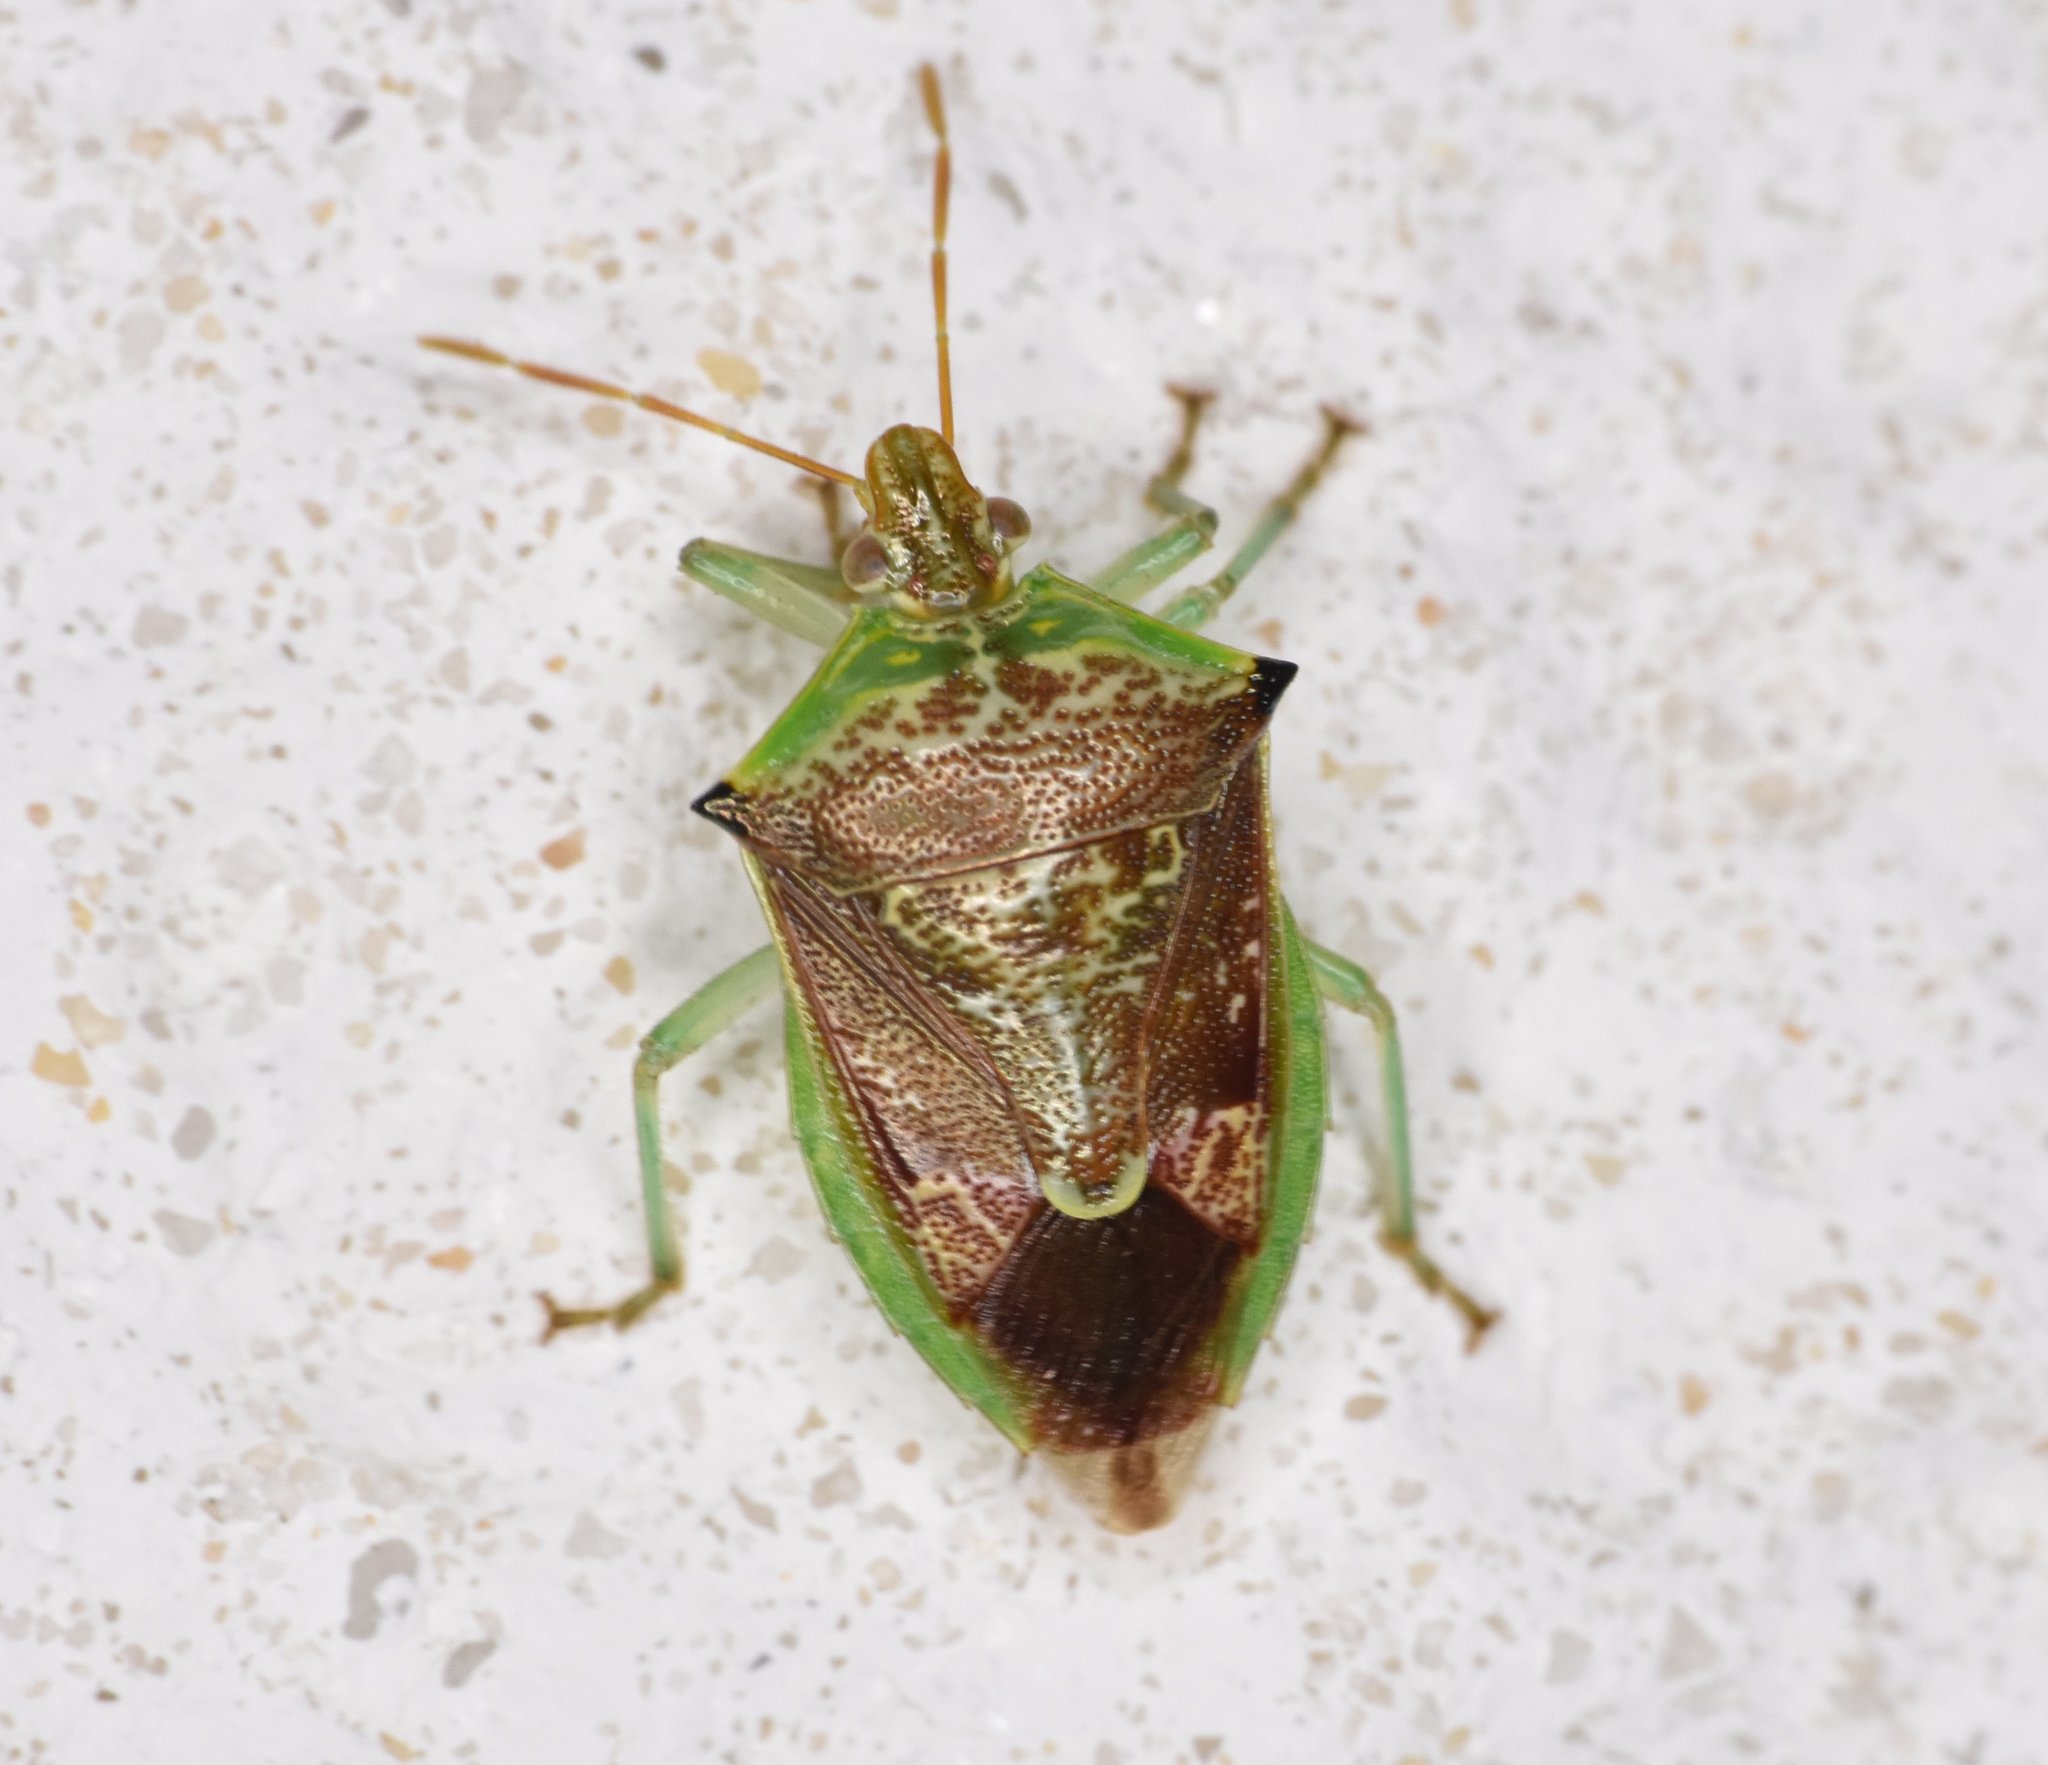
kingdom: Animalia
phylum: Arthropoda
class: Insecta
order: Hemiptera
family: Pentatomidae
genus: Tyrannocoris
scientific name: Tyrannocoris jole
